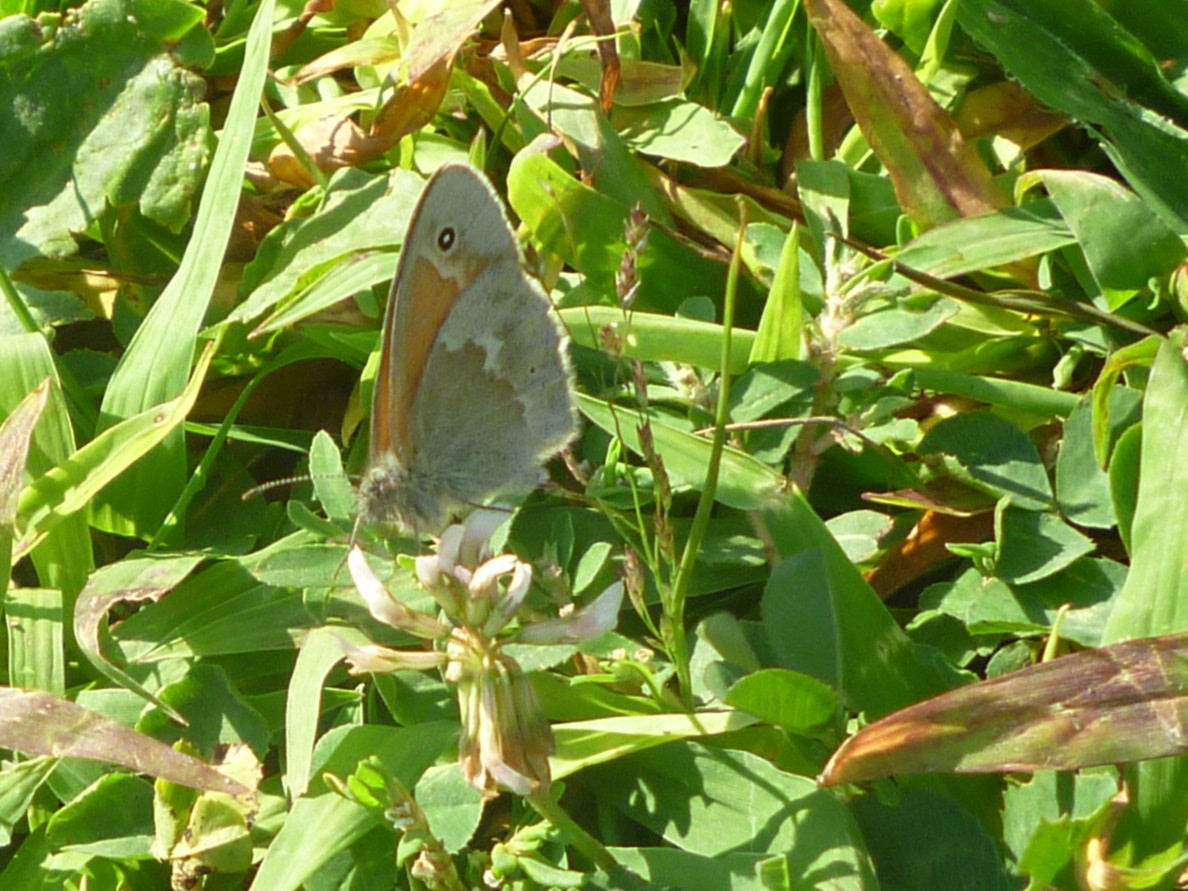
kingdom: Animalia
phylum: Arthropoda
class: Insecta
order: Lepidoptera
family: Nymphalidae
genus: Coenonympha
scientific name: Coenonympha california
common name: Common ringlet
